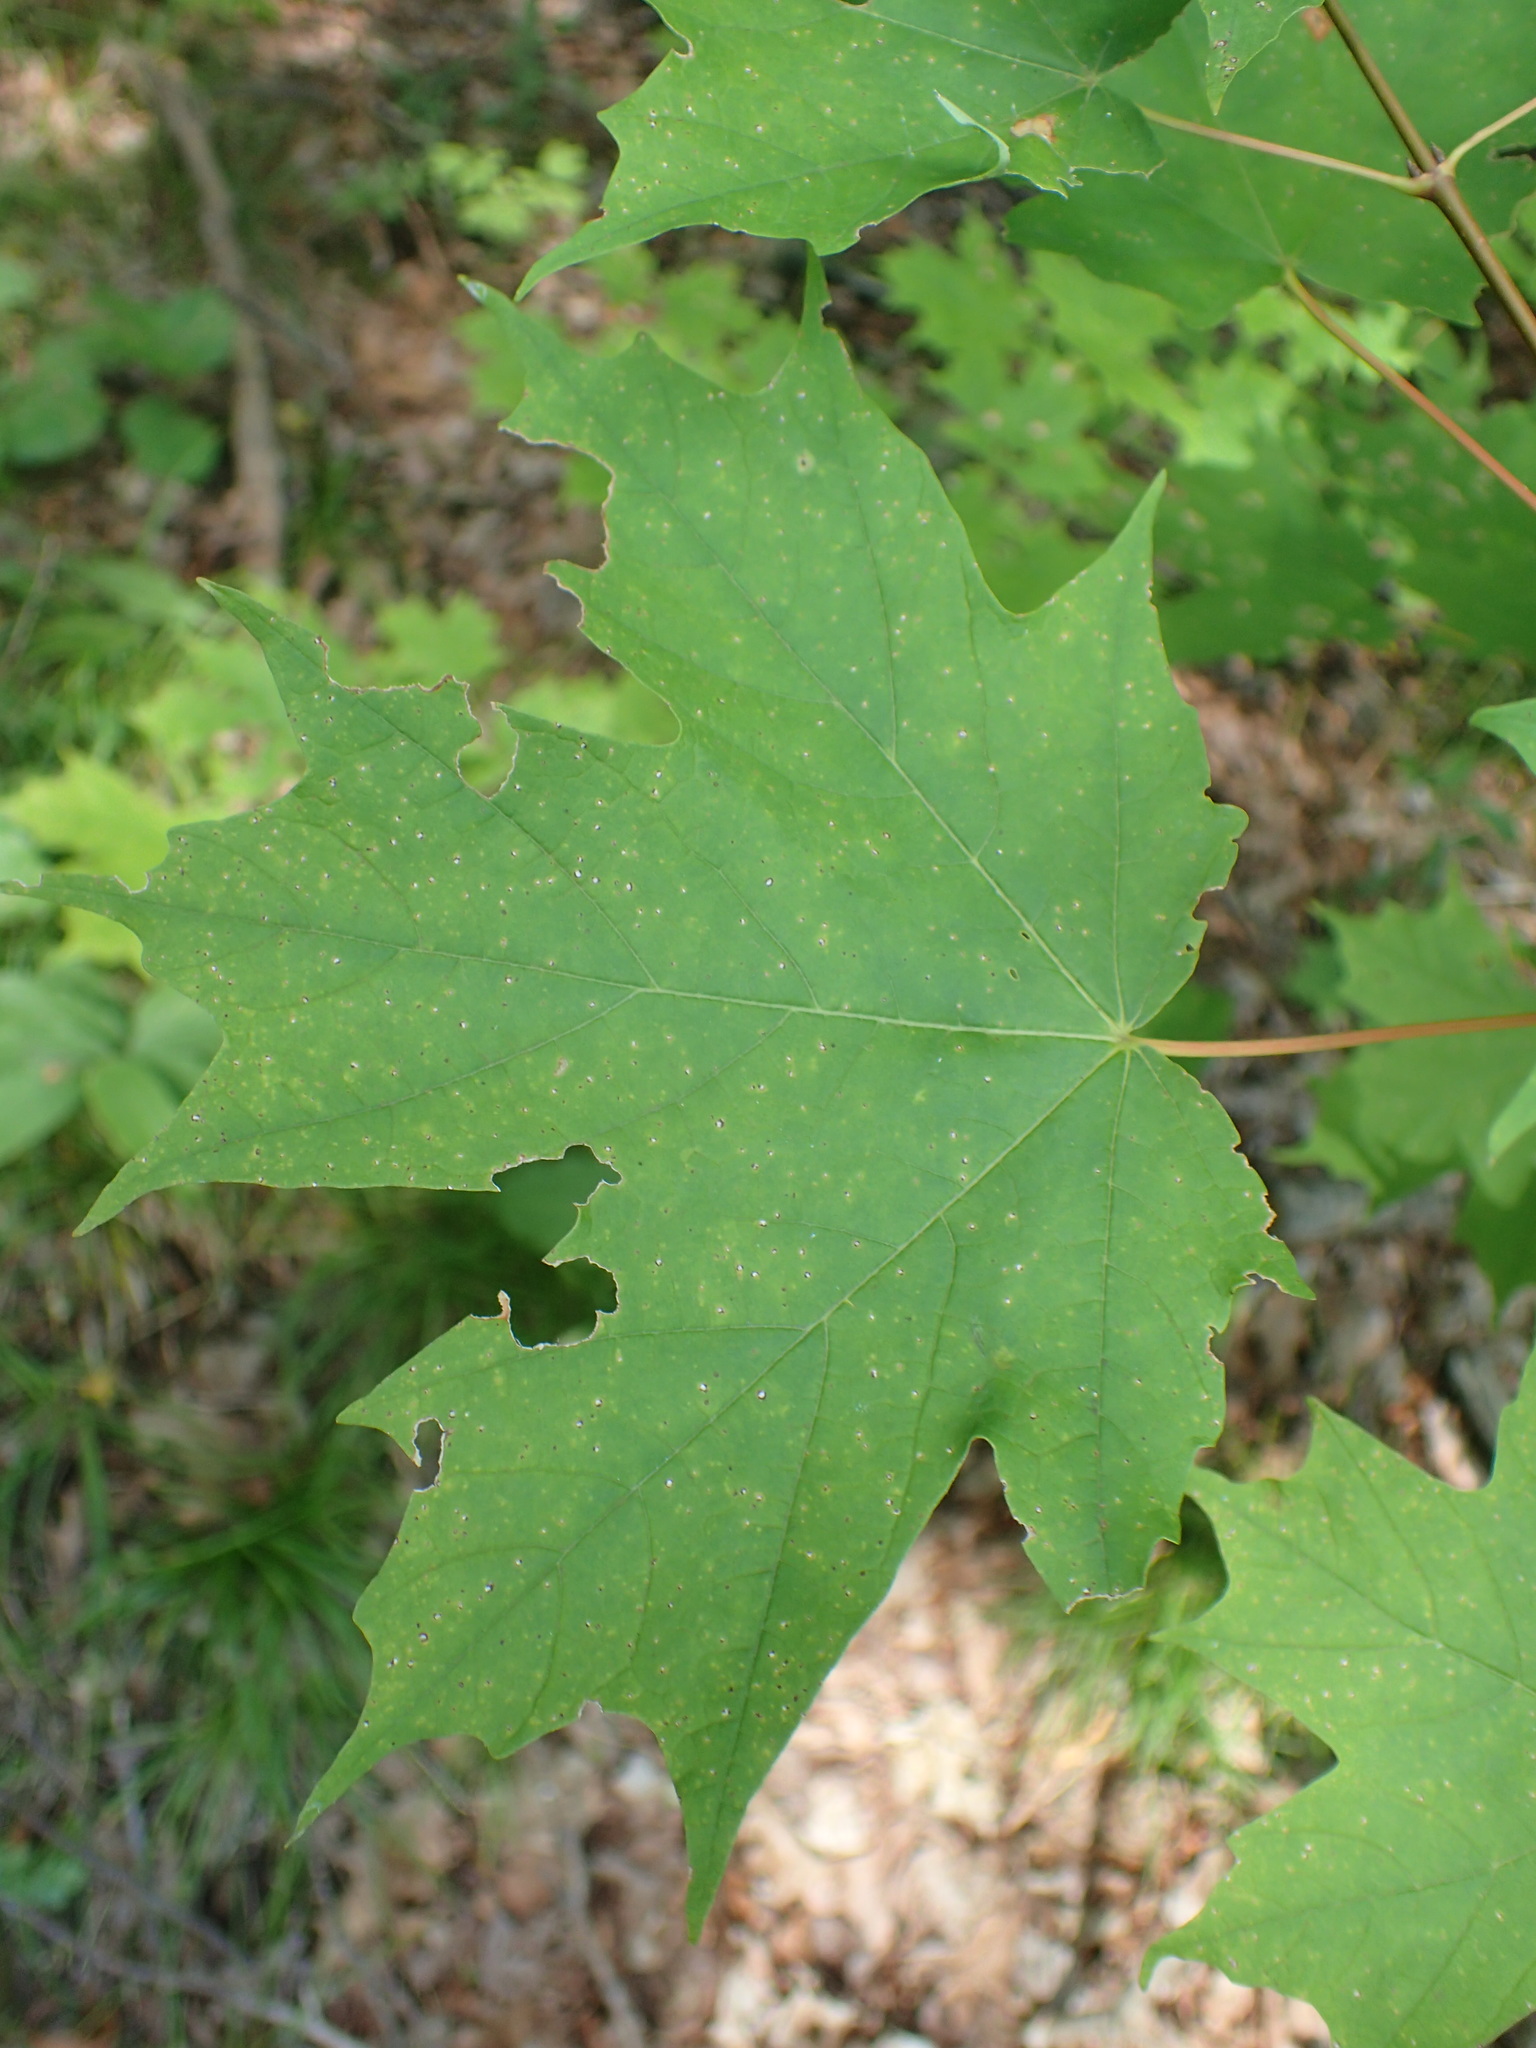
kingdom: Plantae
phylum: Tracheophyta
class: Magnoliopsida
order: Sapindales
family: Sapindaceae
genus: Acer
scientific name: Acer saccharum
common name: Sugar maple
